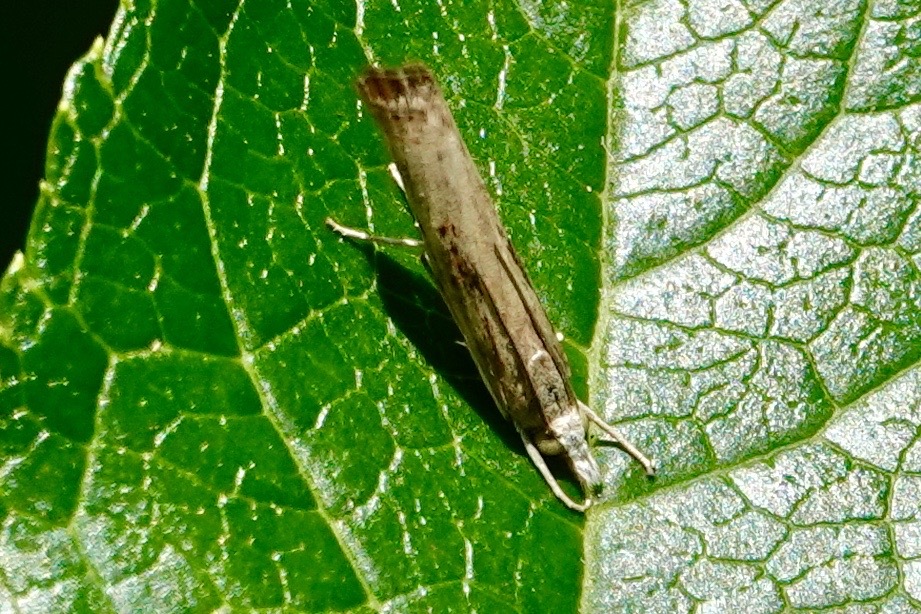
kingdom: Animalia
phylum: Arthropoda
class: Insecta
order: Lepidoptera
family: Crambidae
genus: Parapediasia
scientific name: Parapediasia teterellus
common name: Bluegrass webworm moth
